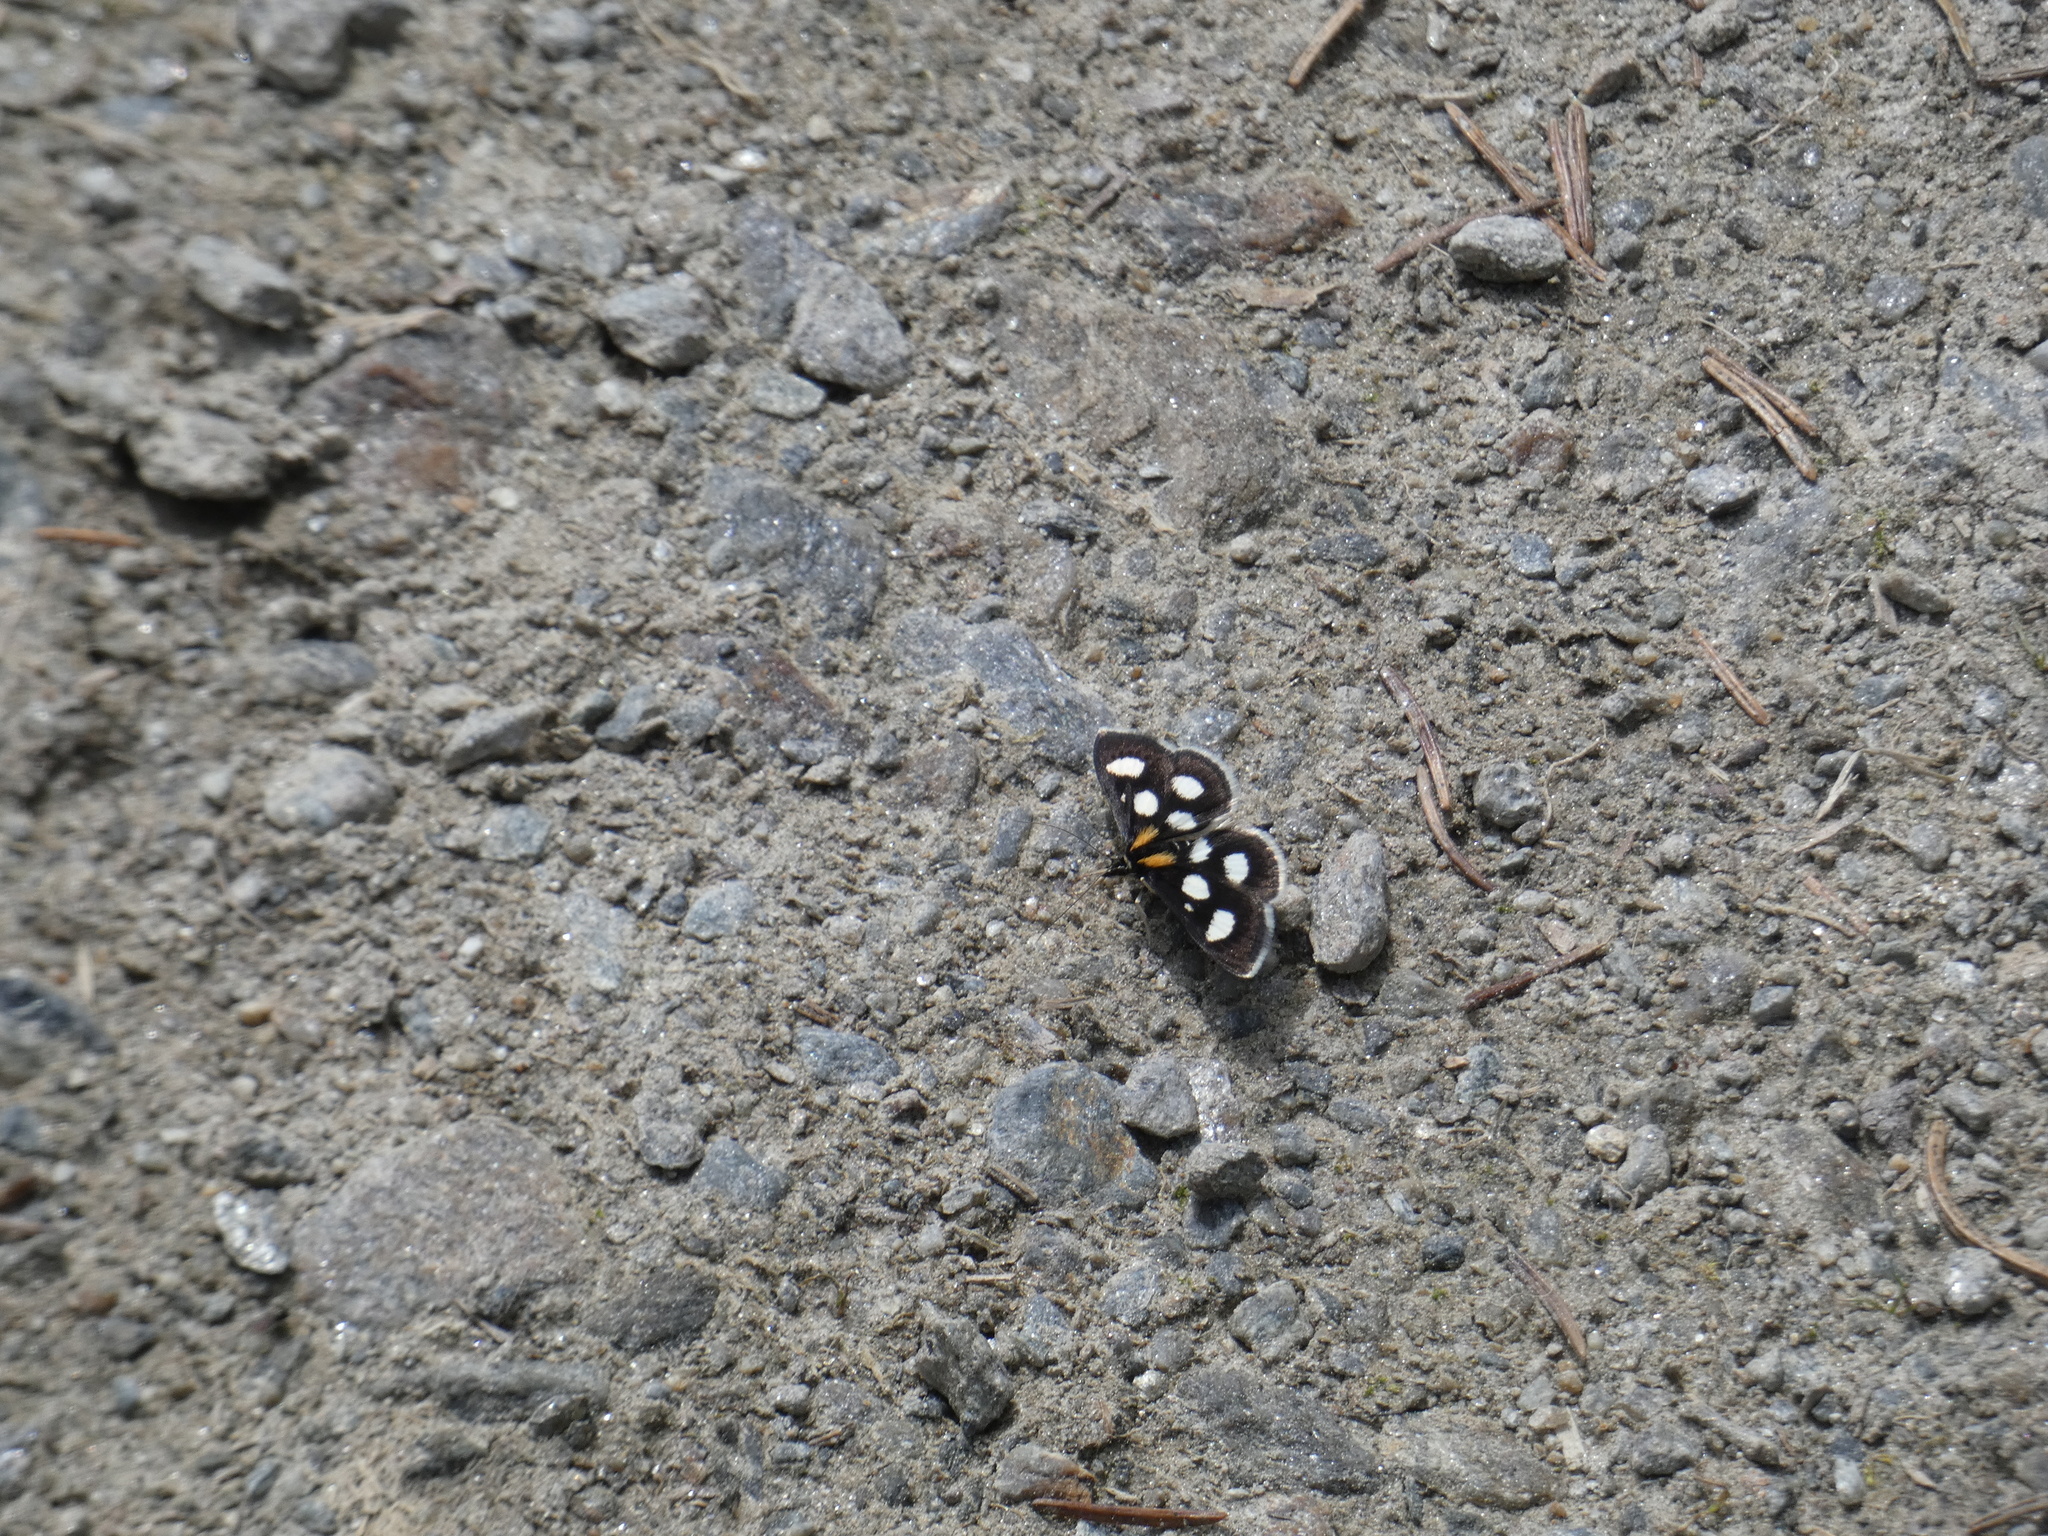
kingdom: Animalia
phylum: Arthropoda
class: Insecta
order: Lepidoptera
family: Crambidae
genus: Anania
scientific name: Anania funebris
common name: White-spotted sable moth
